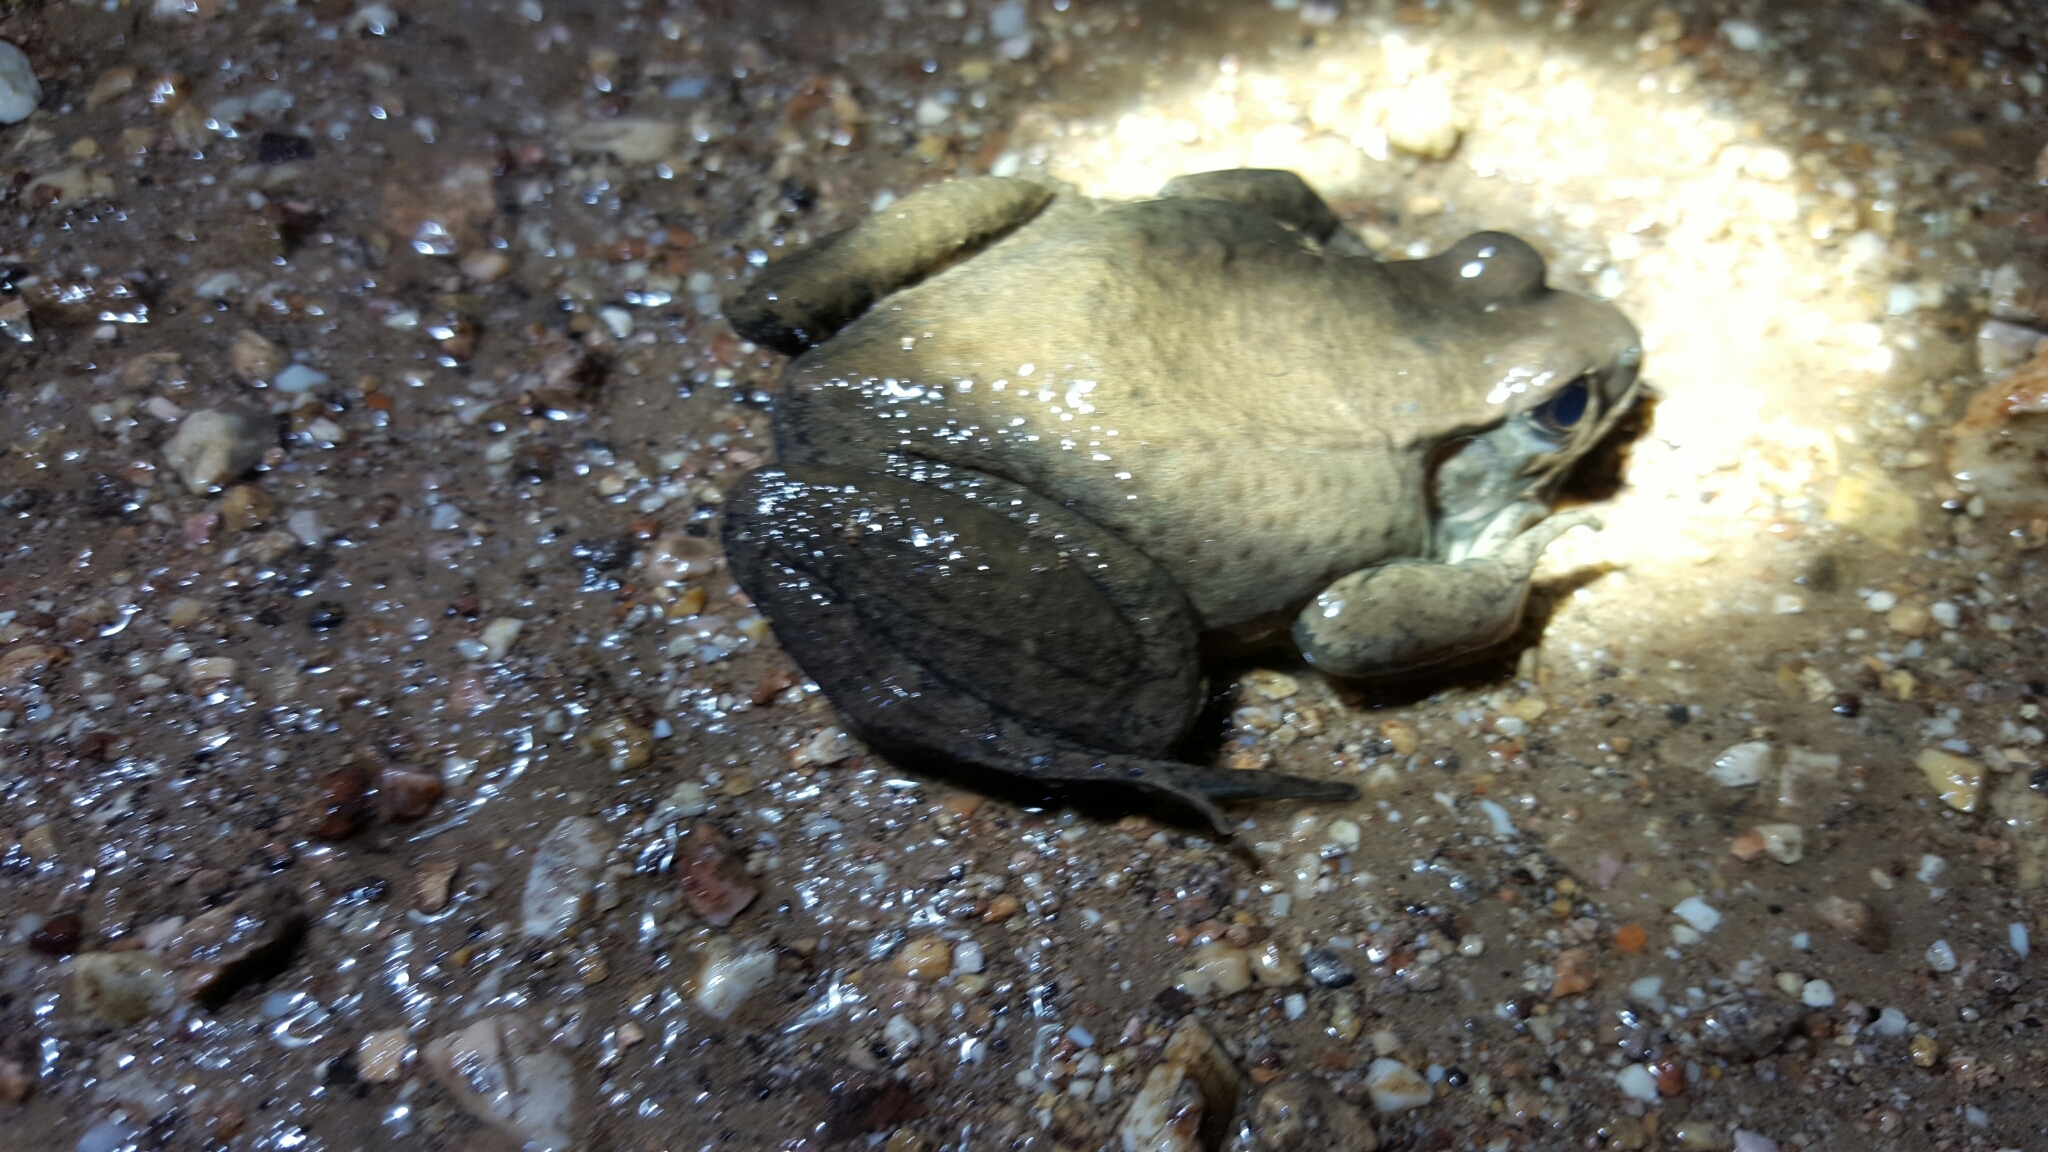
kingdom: Animalia
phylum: Chordata
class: Amphibia
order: Anura
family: Ranidae
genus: Lithobates
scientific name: Lithobates clamitans
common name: Green frog
